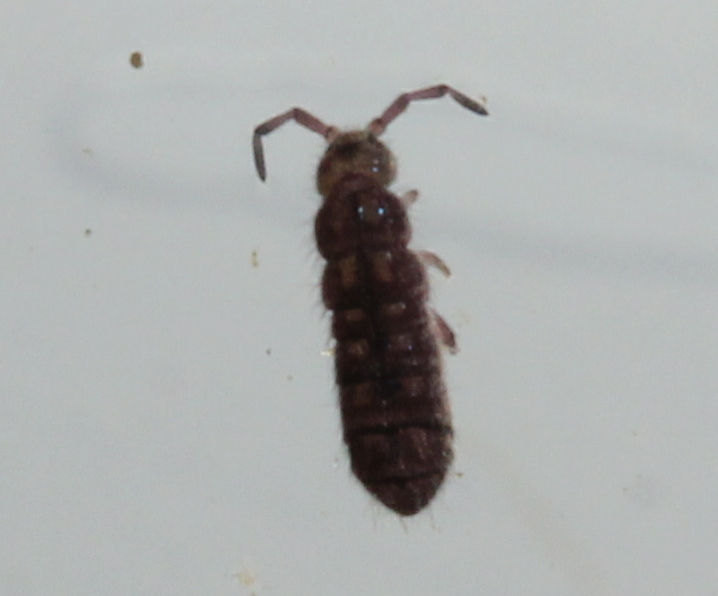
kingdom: Animalia
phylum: Arthropoda
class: Collembola
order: Entomobryomorpha
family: Isotomidae
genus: Isotoma
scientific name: Isotoma delta
